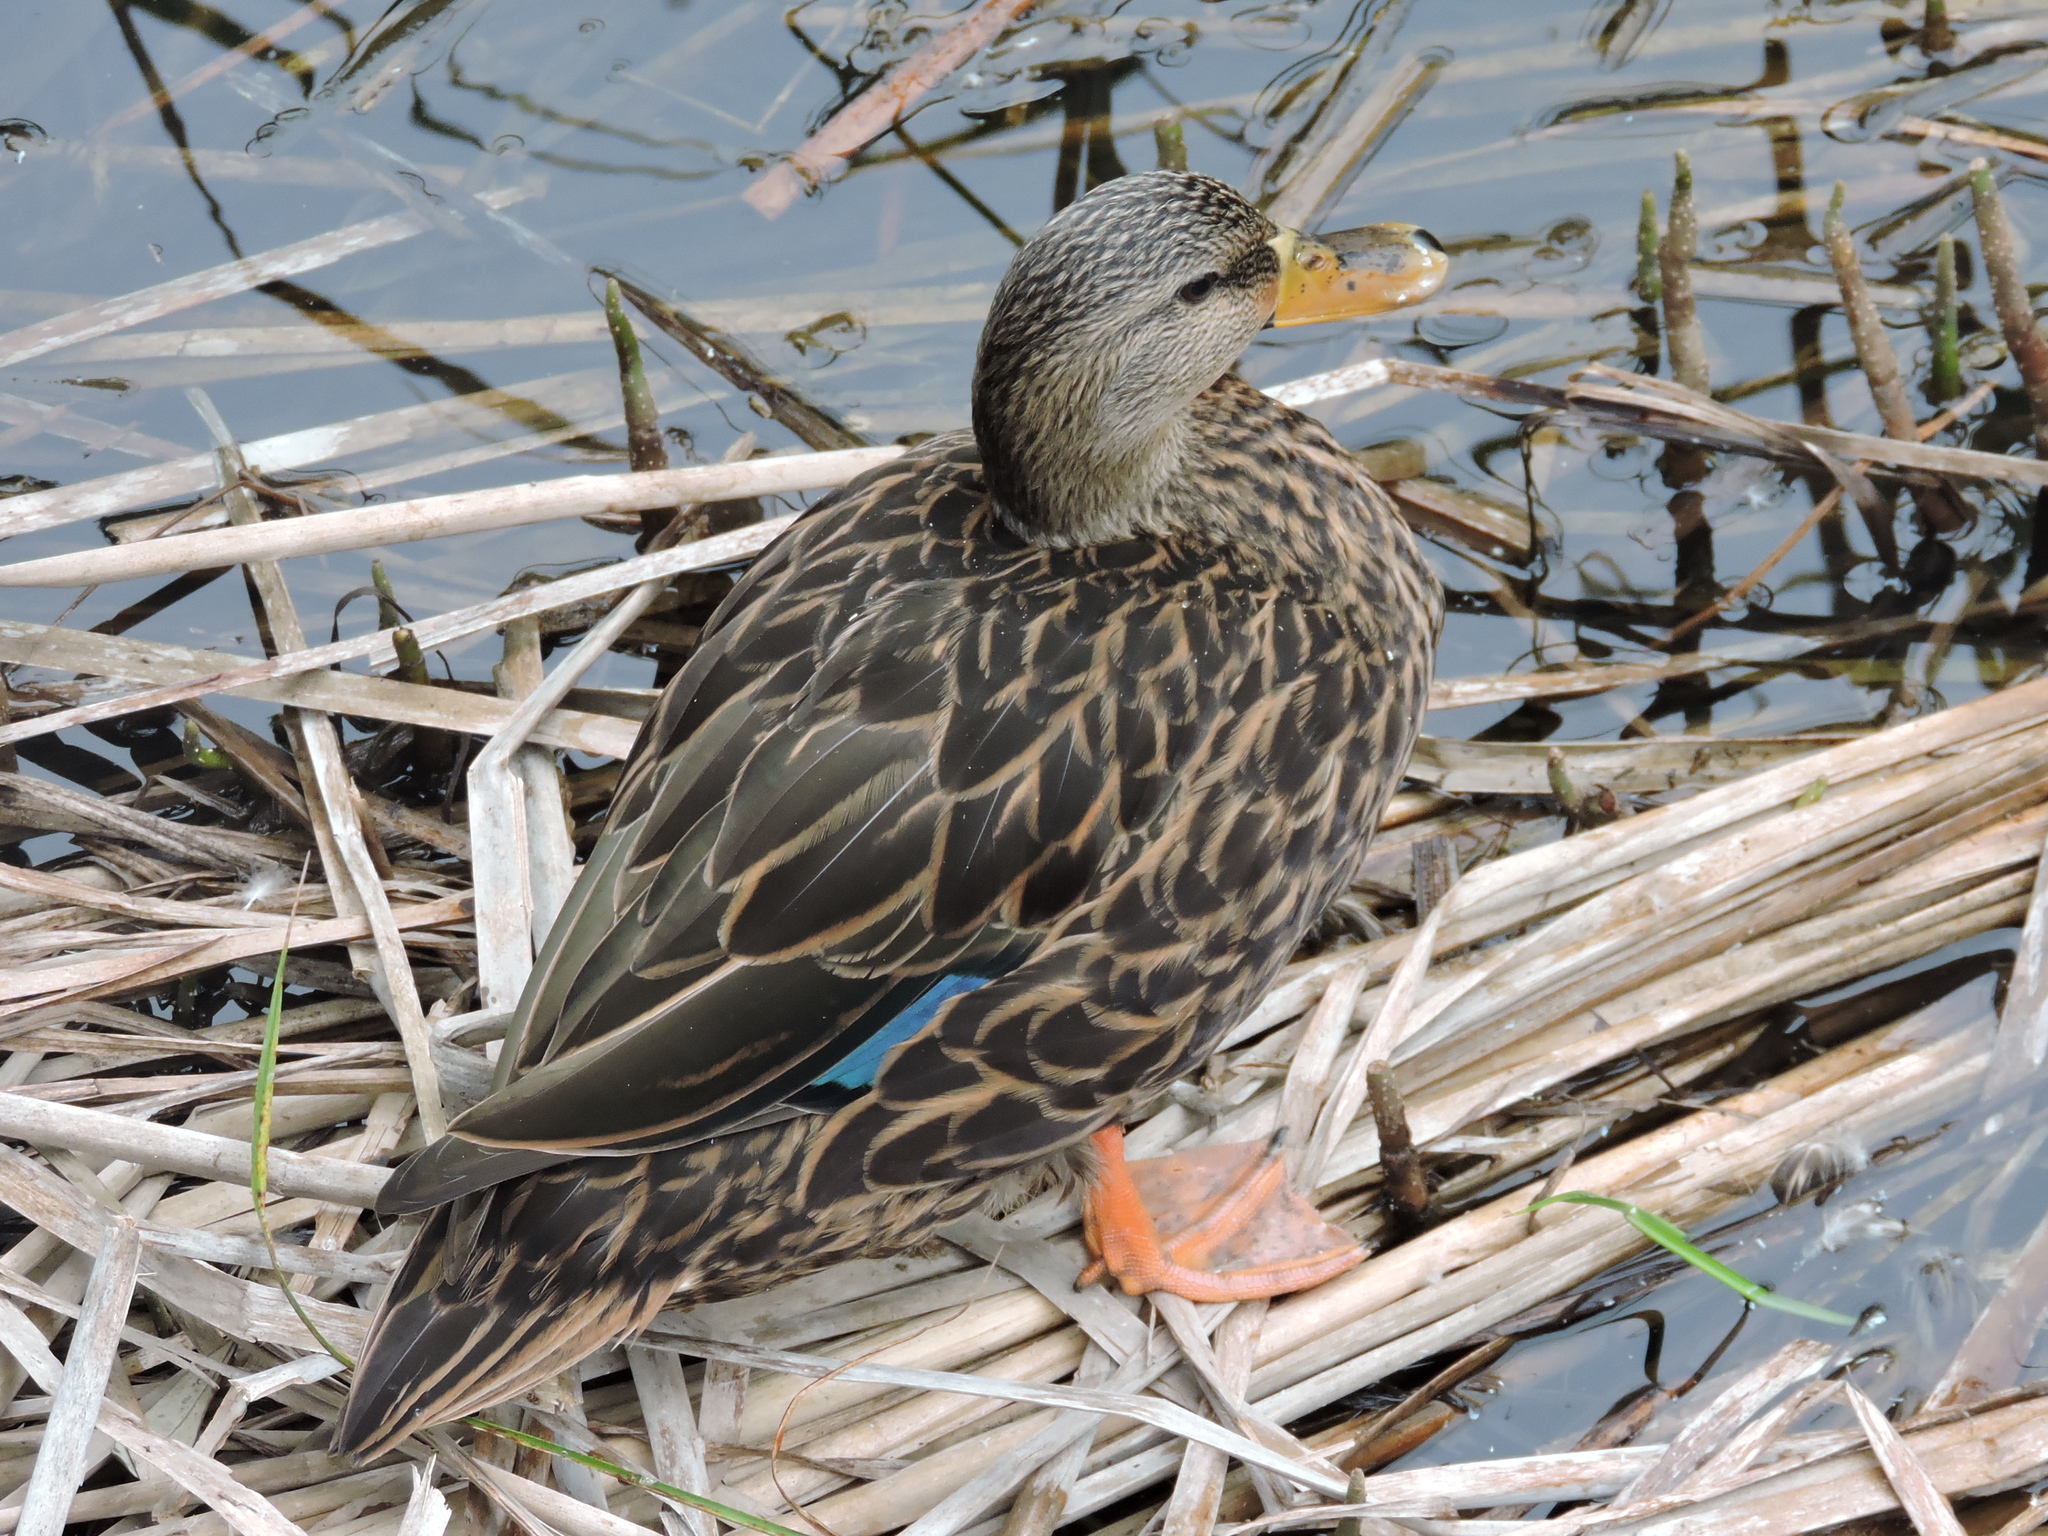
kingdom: Animalia
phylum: Chordata
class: Aves
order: Anseriformes
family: Anatidae
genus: Anas
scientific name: Anas fulvigula
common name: Mottled duck
